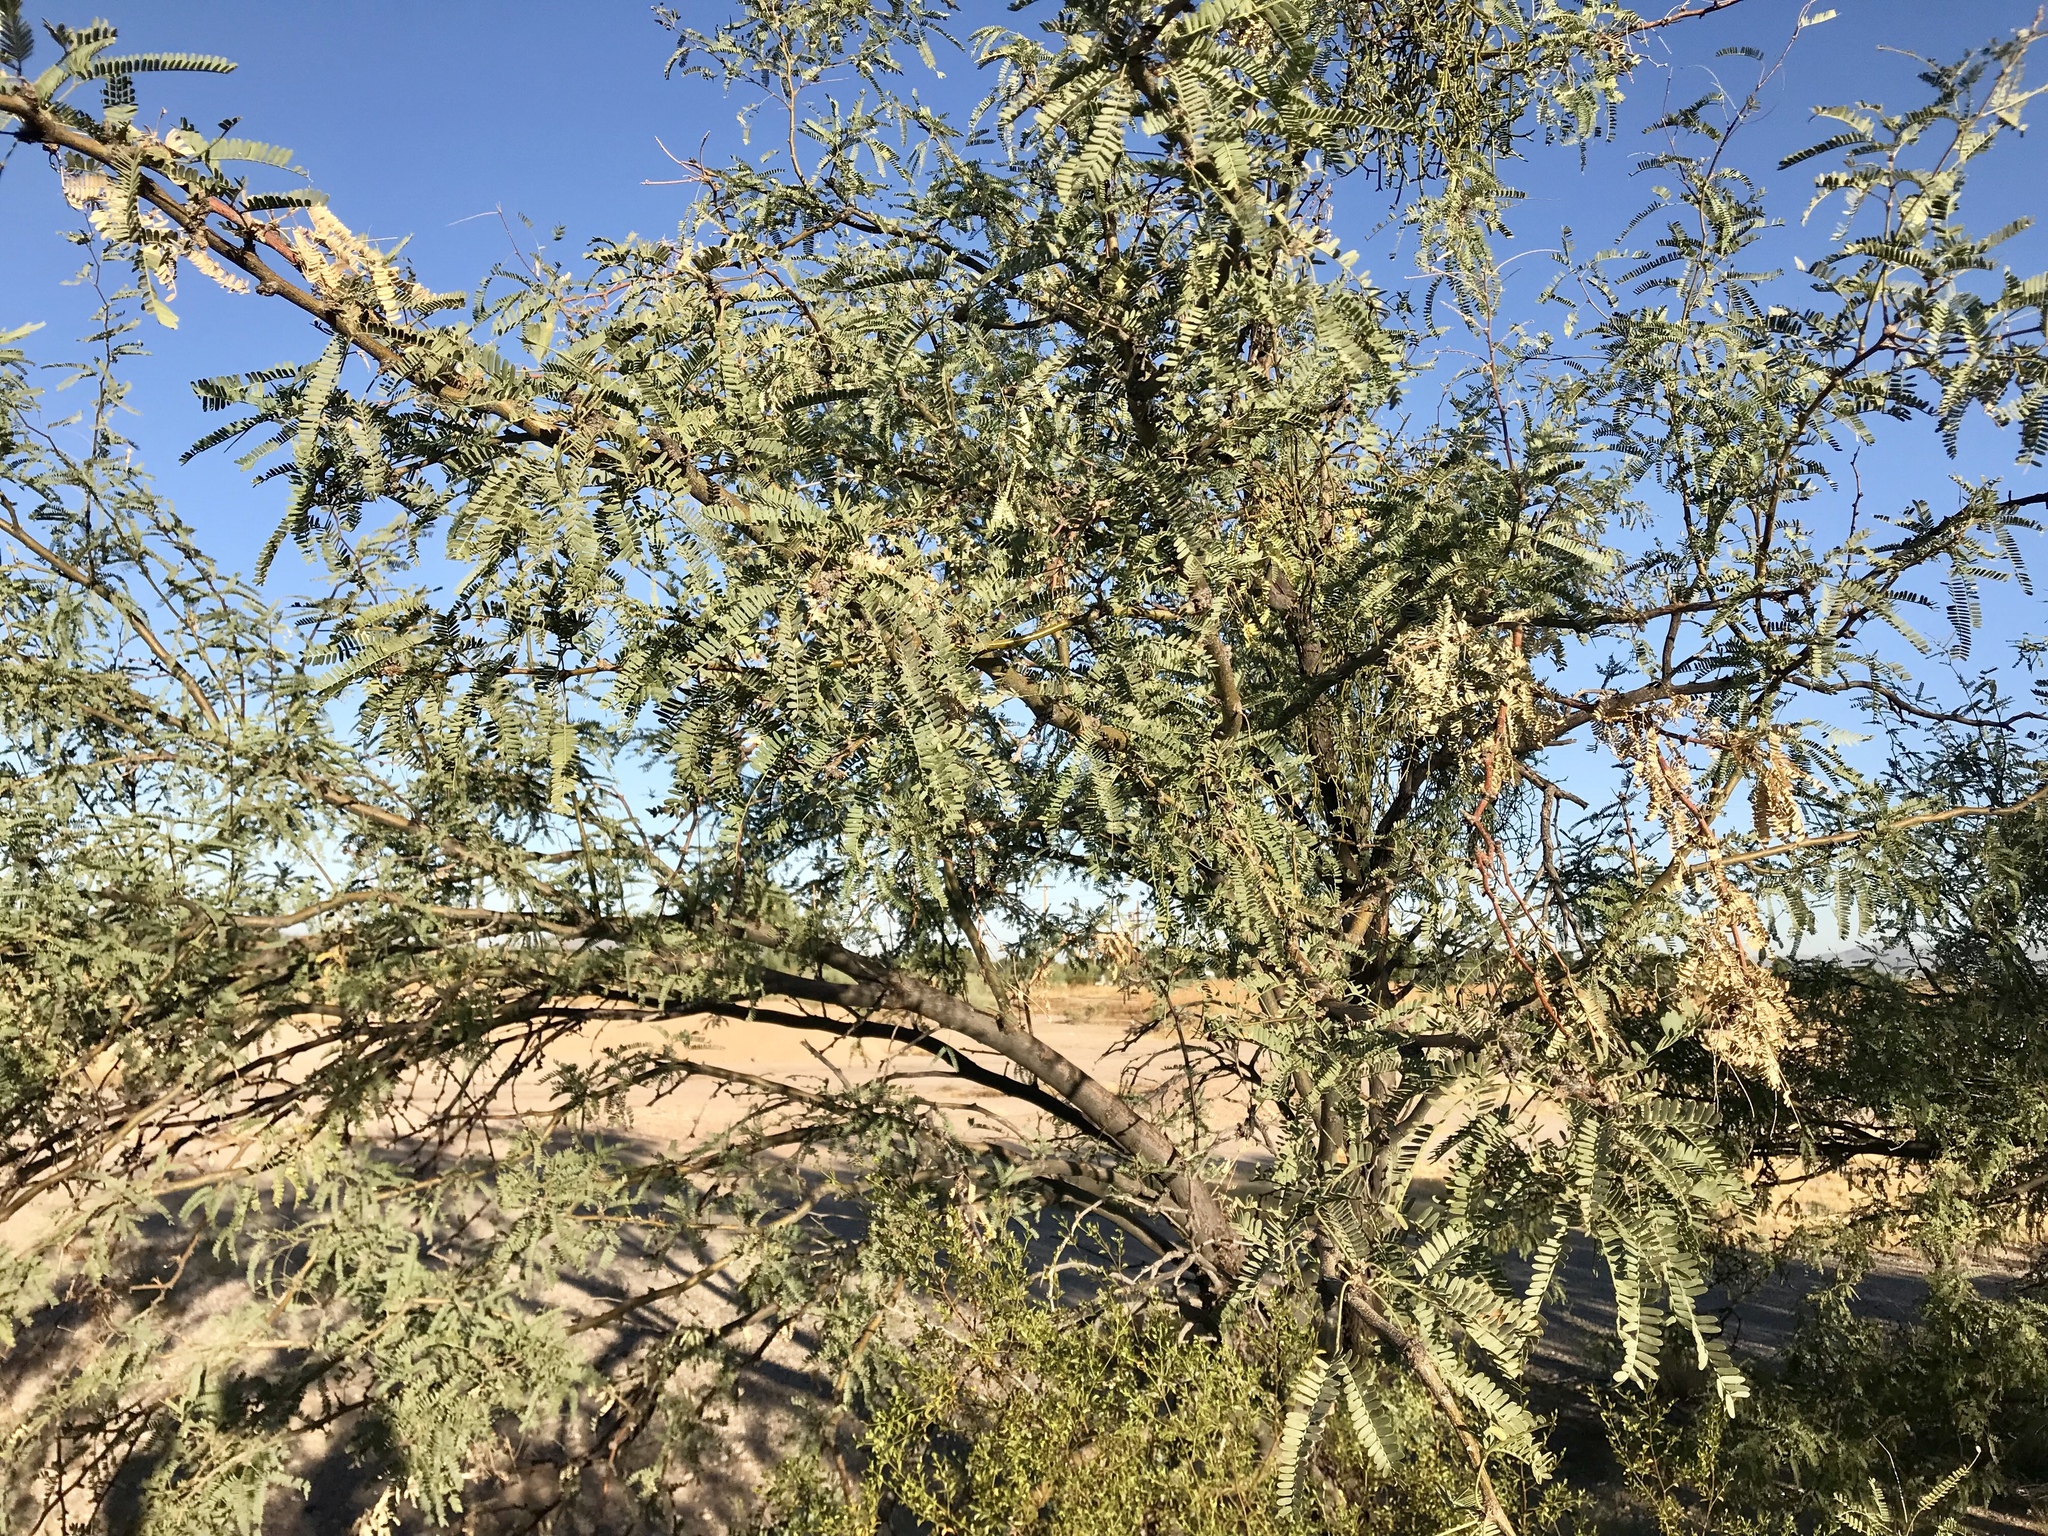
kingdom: Plantae
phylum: Tracheophyta
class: Magnoliopsida
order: Fabales
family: Fabaceae
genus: Prosopis
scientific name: Prosopis velutina
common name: Velvet mesquite
